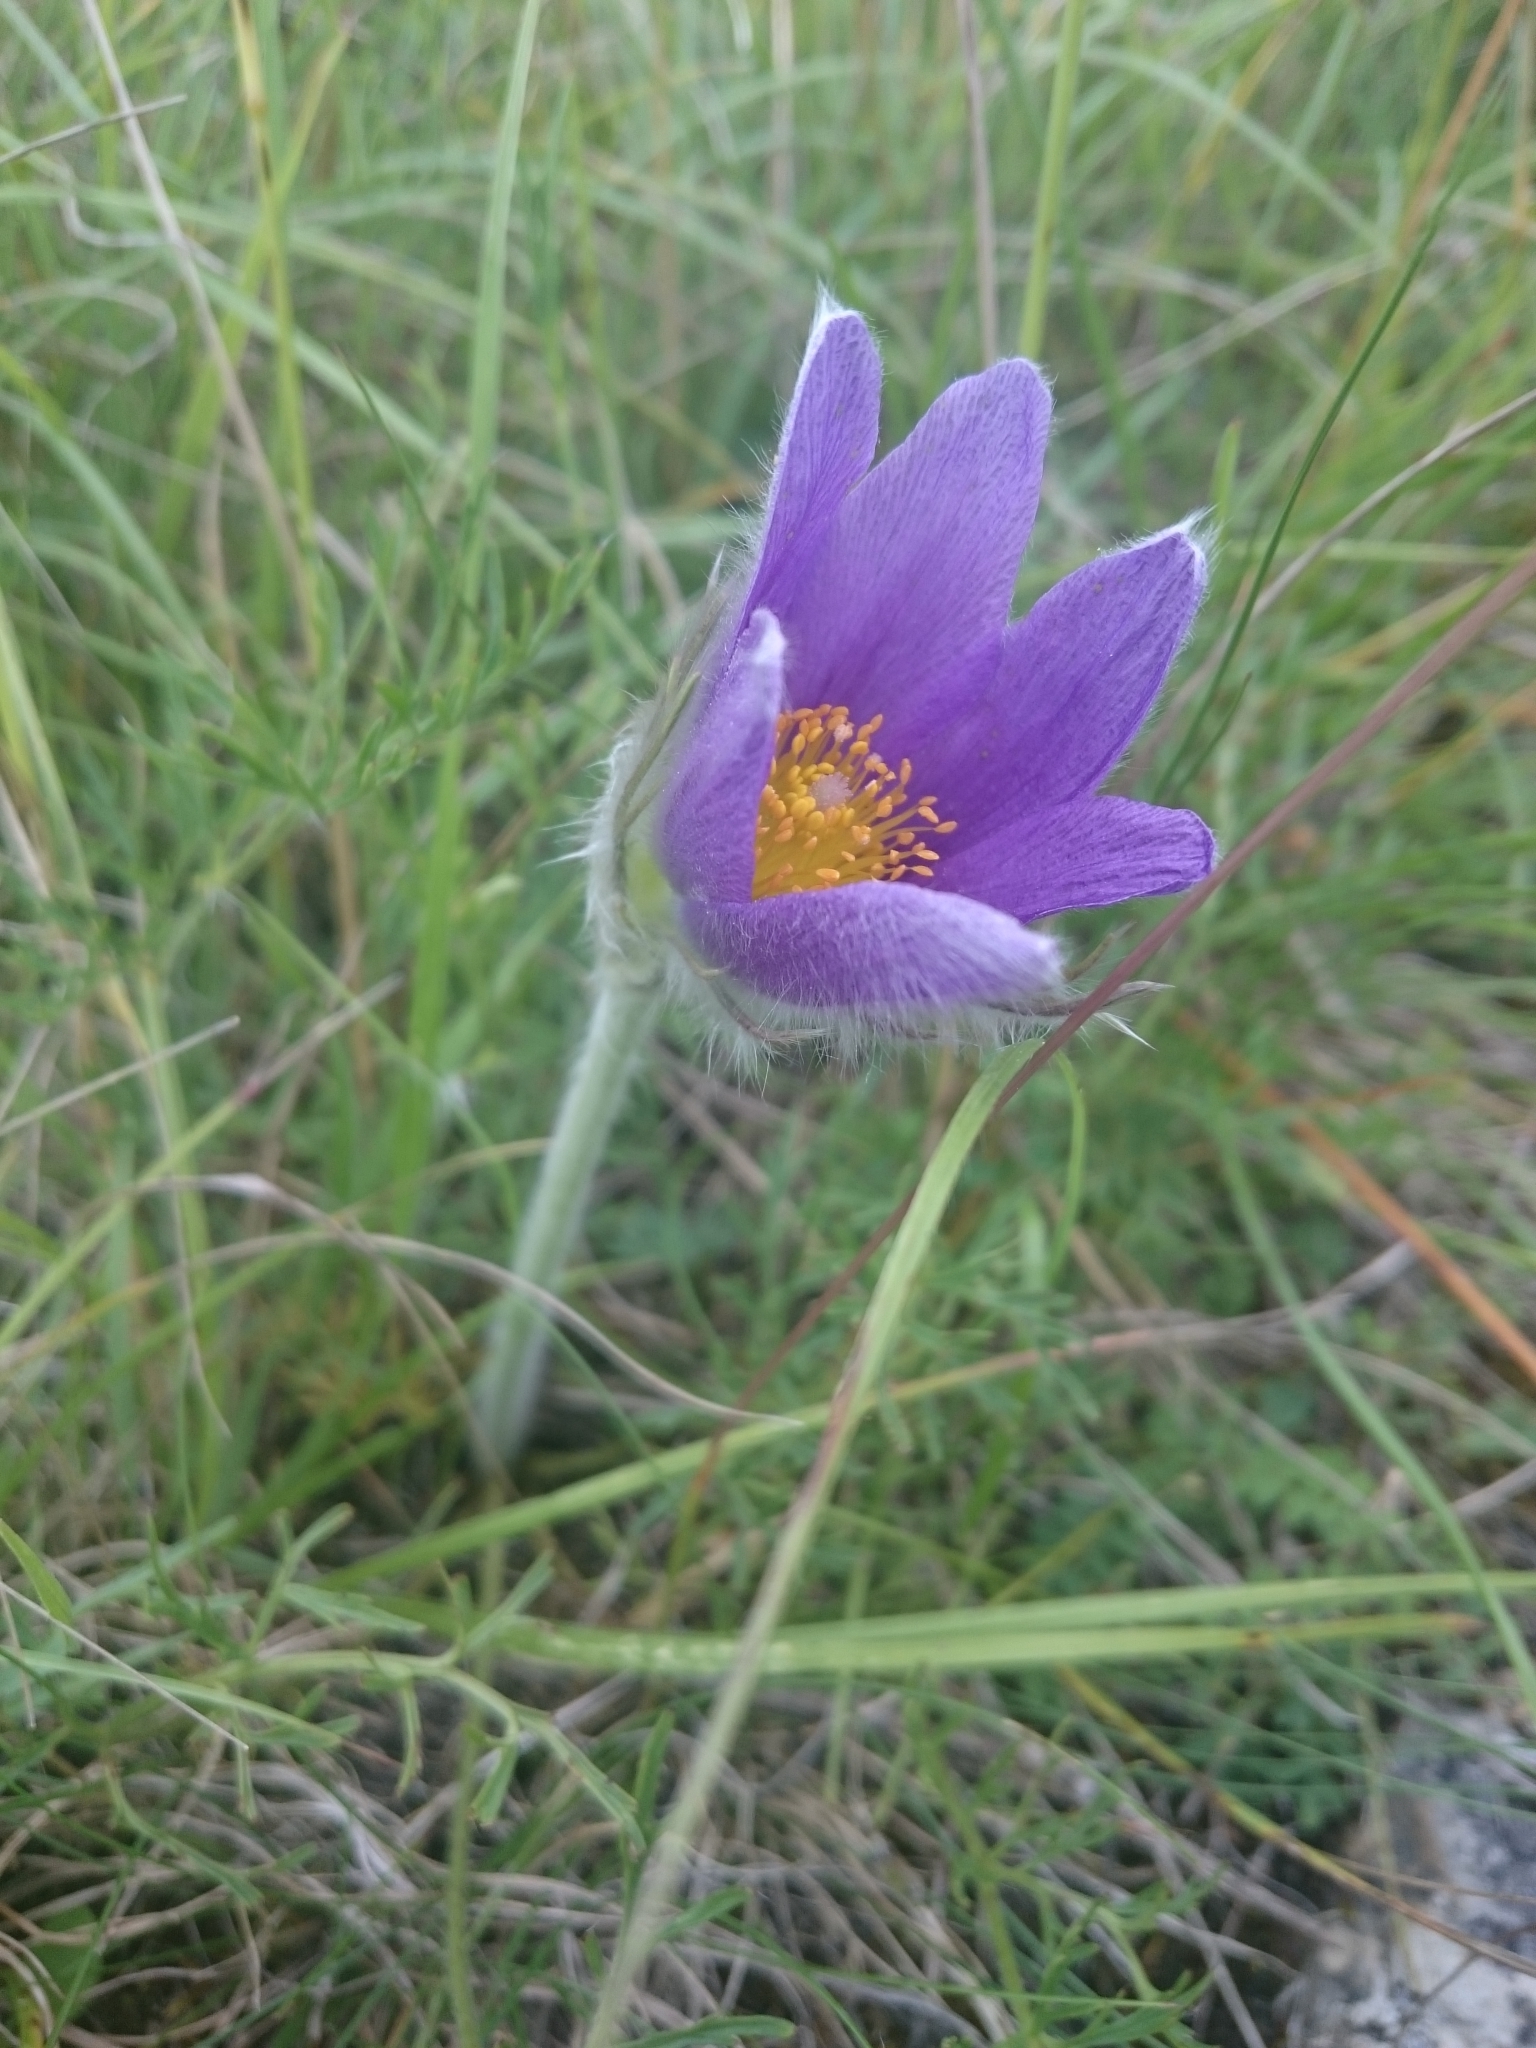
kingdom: Plantae
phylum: Tracheophyta
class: Magnoliopsida
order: Ranunculales
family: Ranunculaceae
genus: Pulsatilla
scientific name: Pulsatilla vulgaris
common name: Pasqueflower
